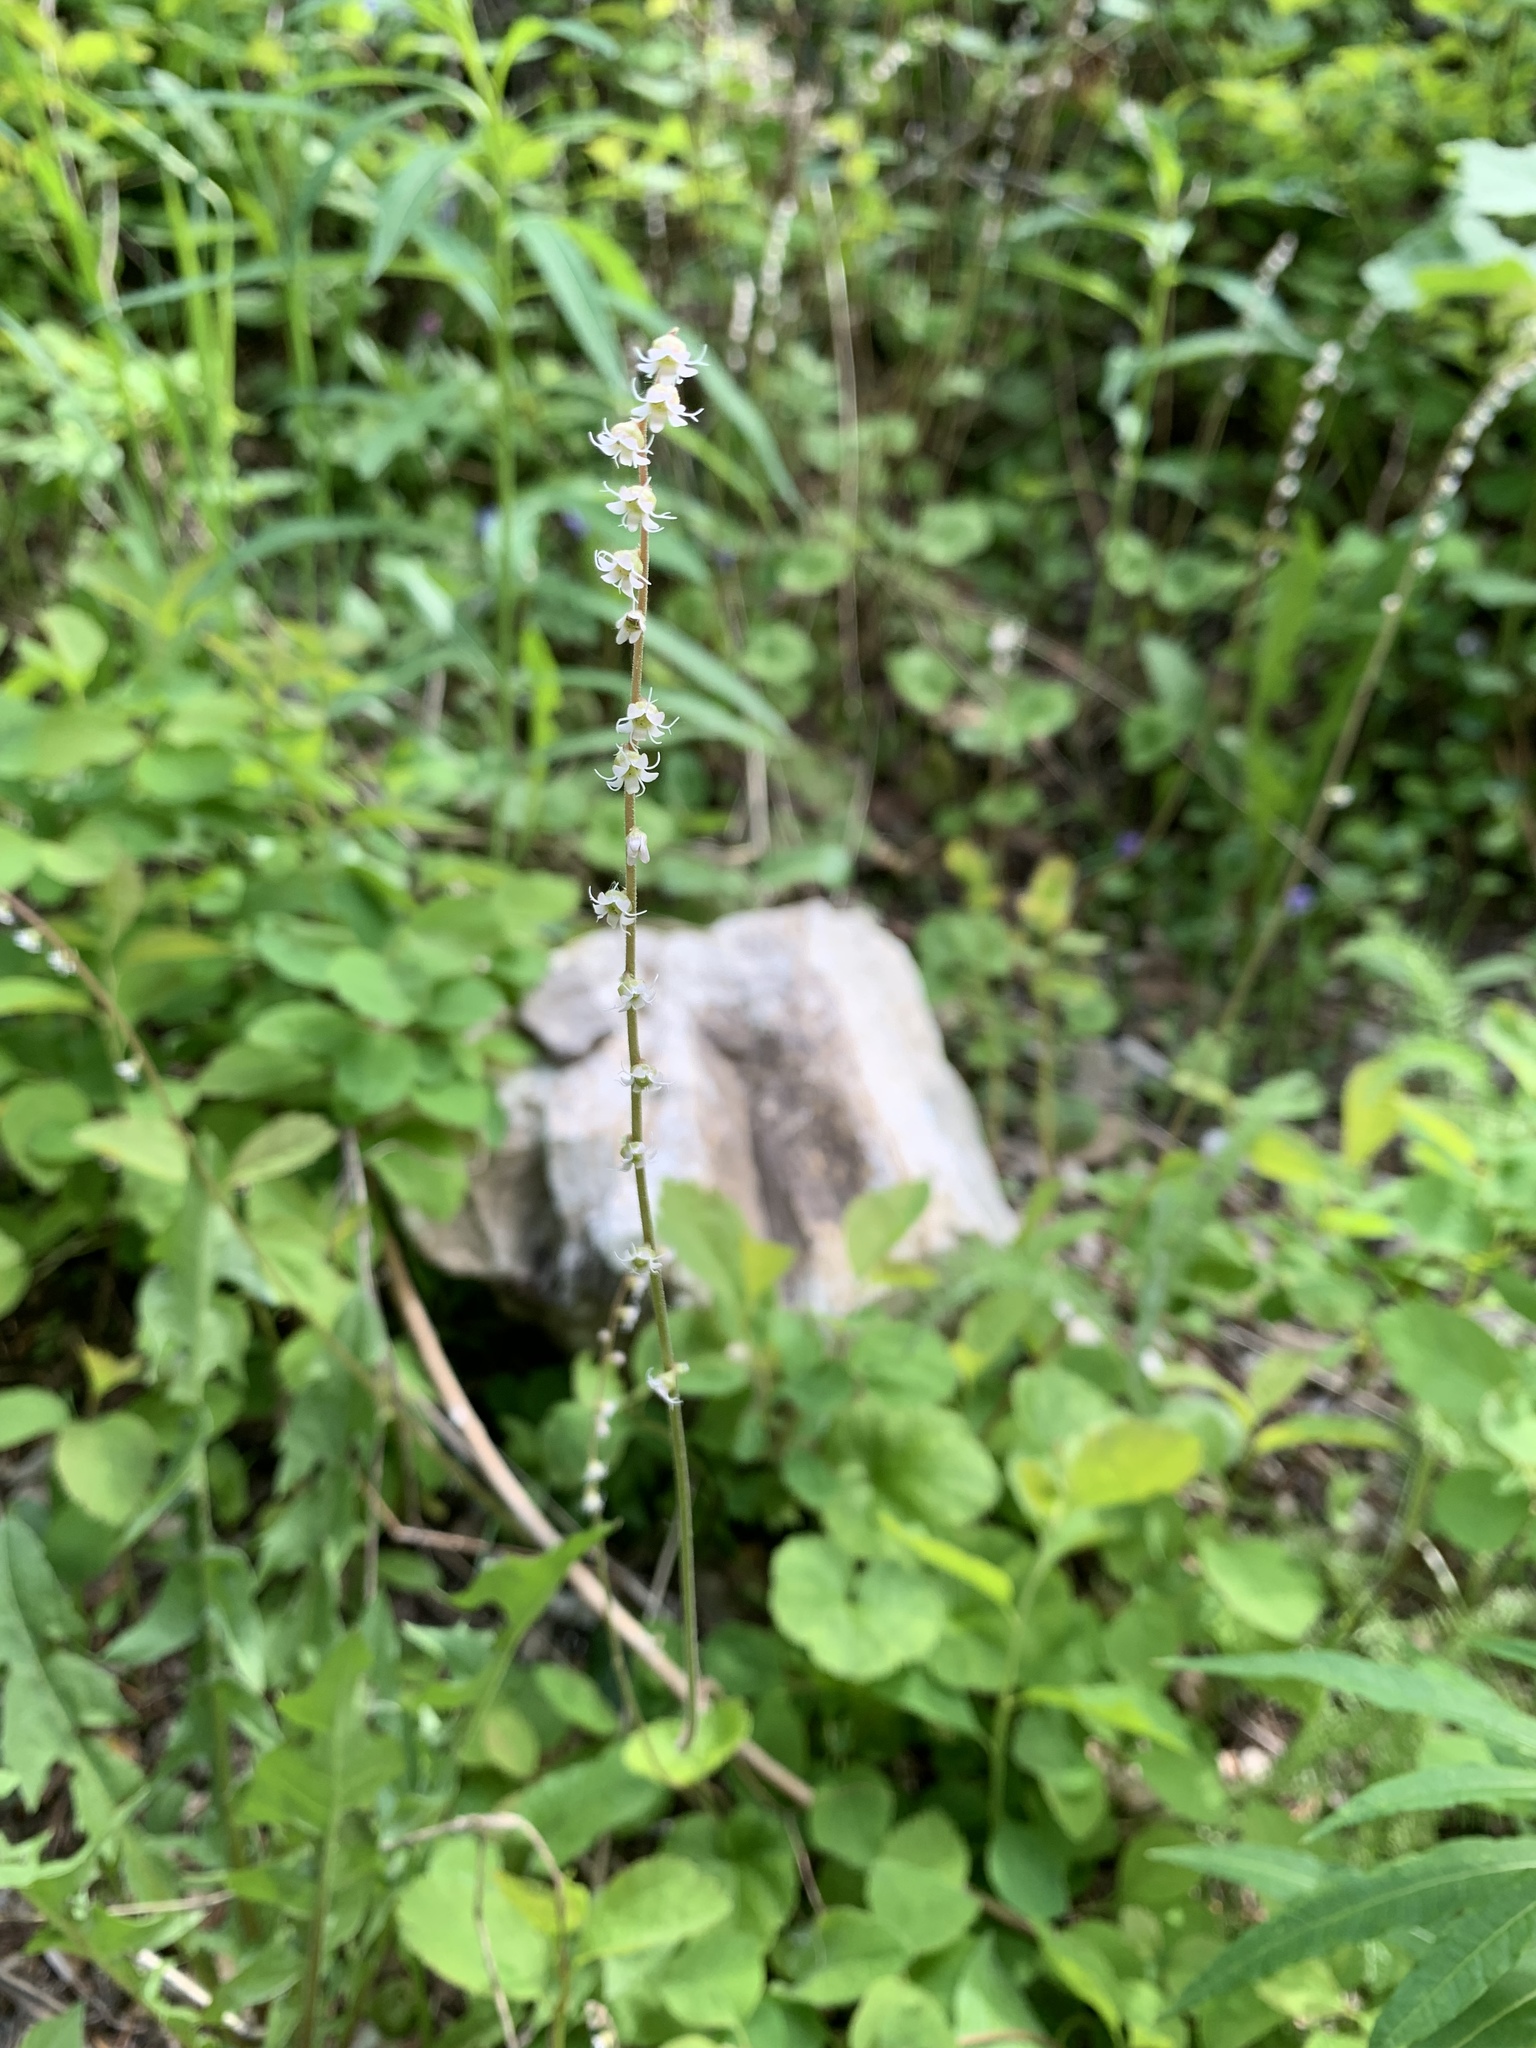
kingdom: Plantae
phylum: Tracheophyta
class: Magnoliopsida
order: Saxifragales
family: Saxifragaceae
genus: Ozomelis
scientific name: Ozomelis stauropetala
